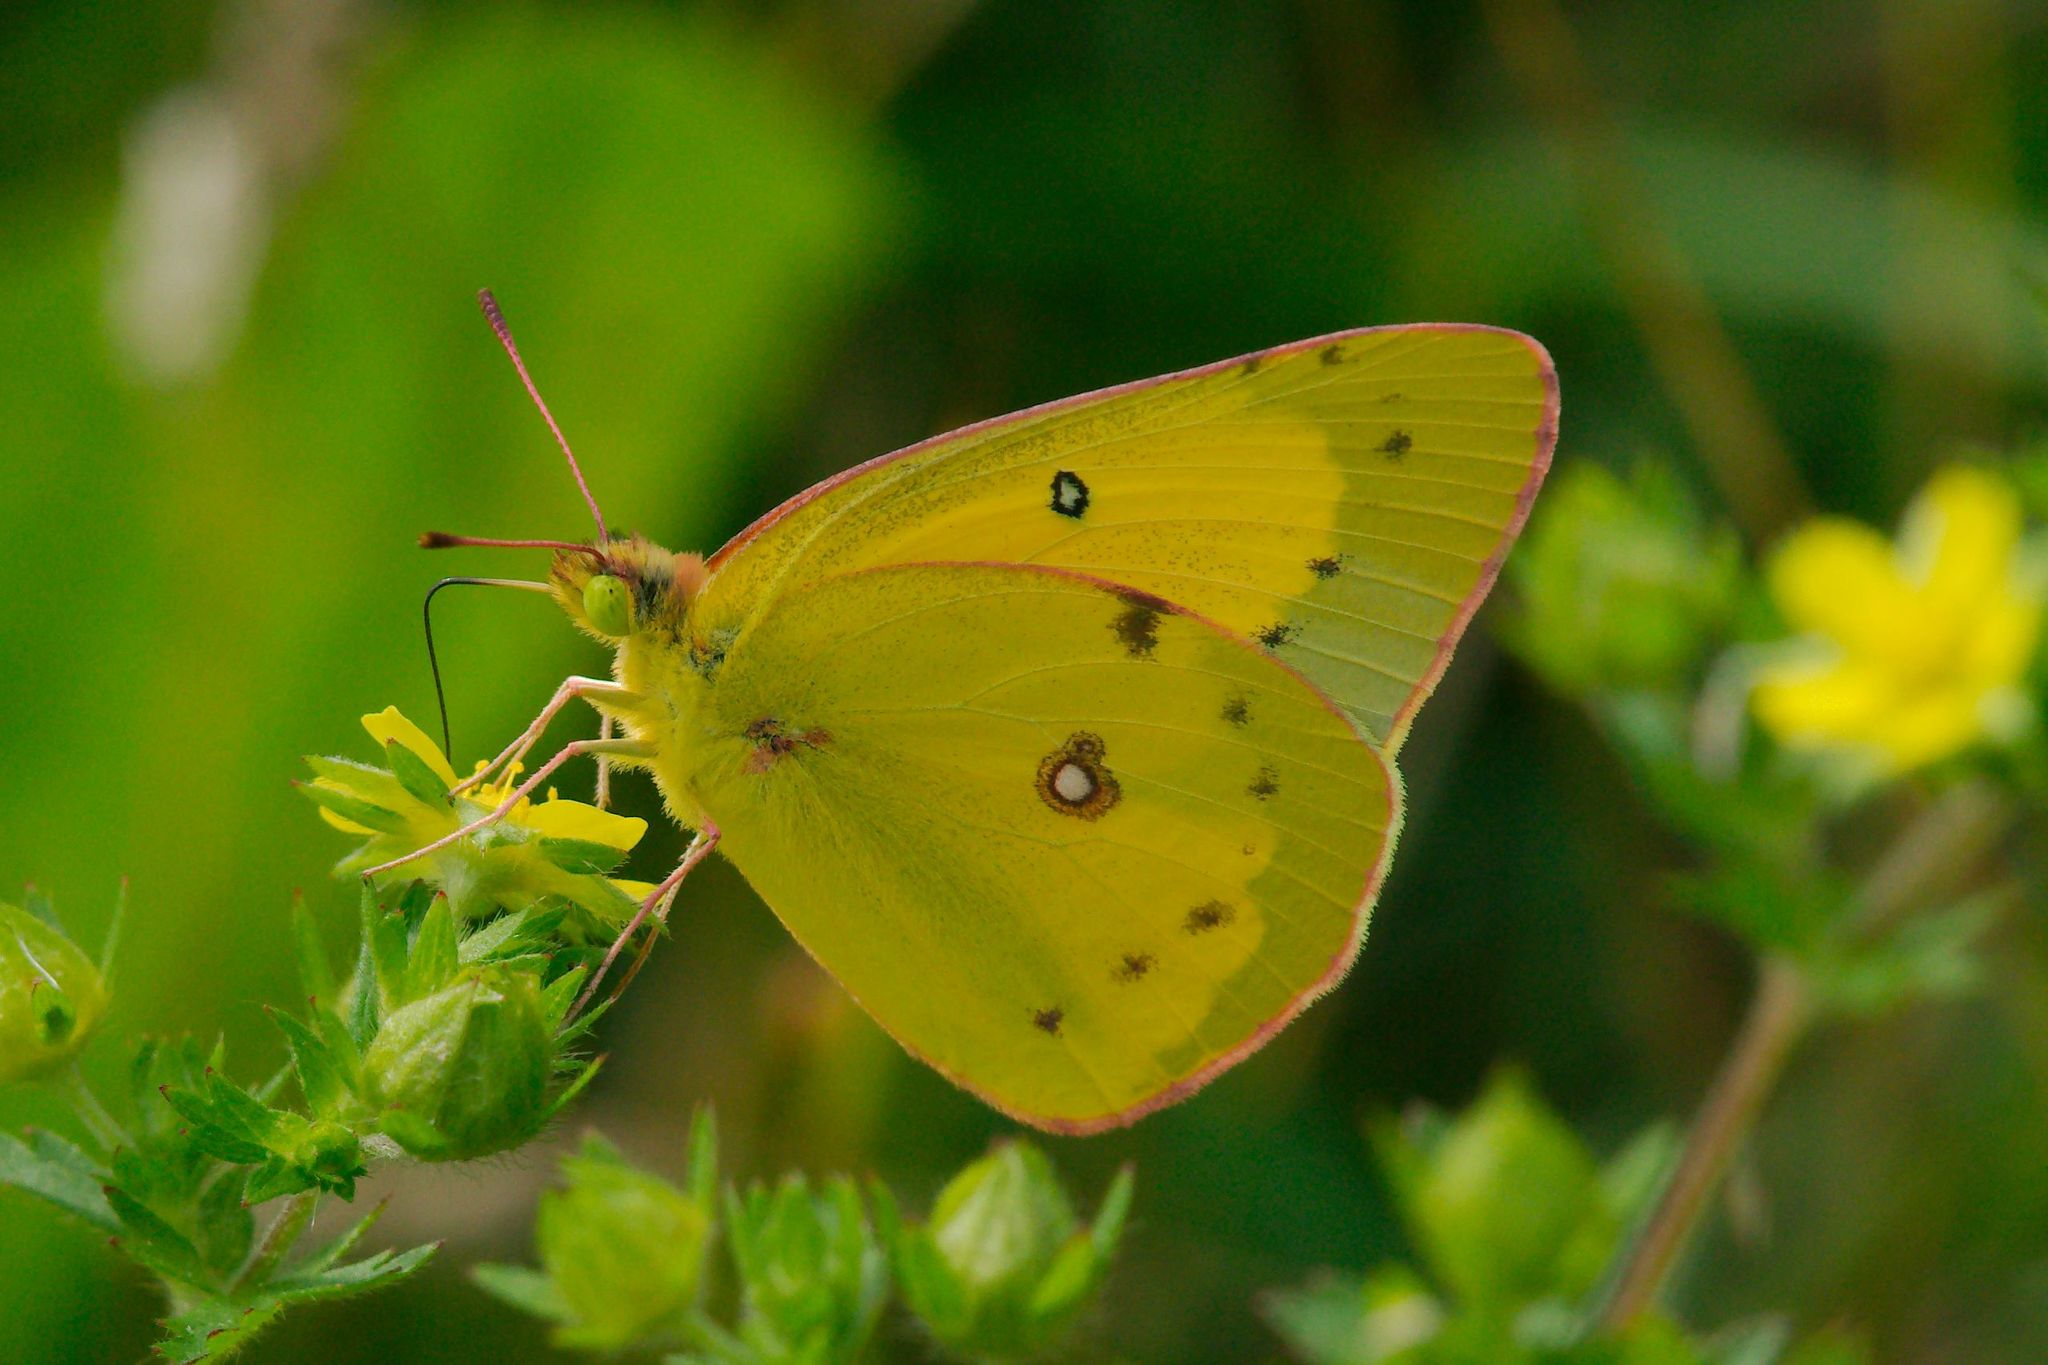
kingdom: Animalia
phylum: Arthropoda
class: Insecta
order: Lepidoptera
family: Pieridae
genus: Colias
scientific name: Colias philodice
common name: Clouded sulphur
